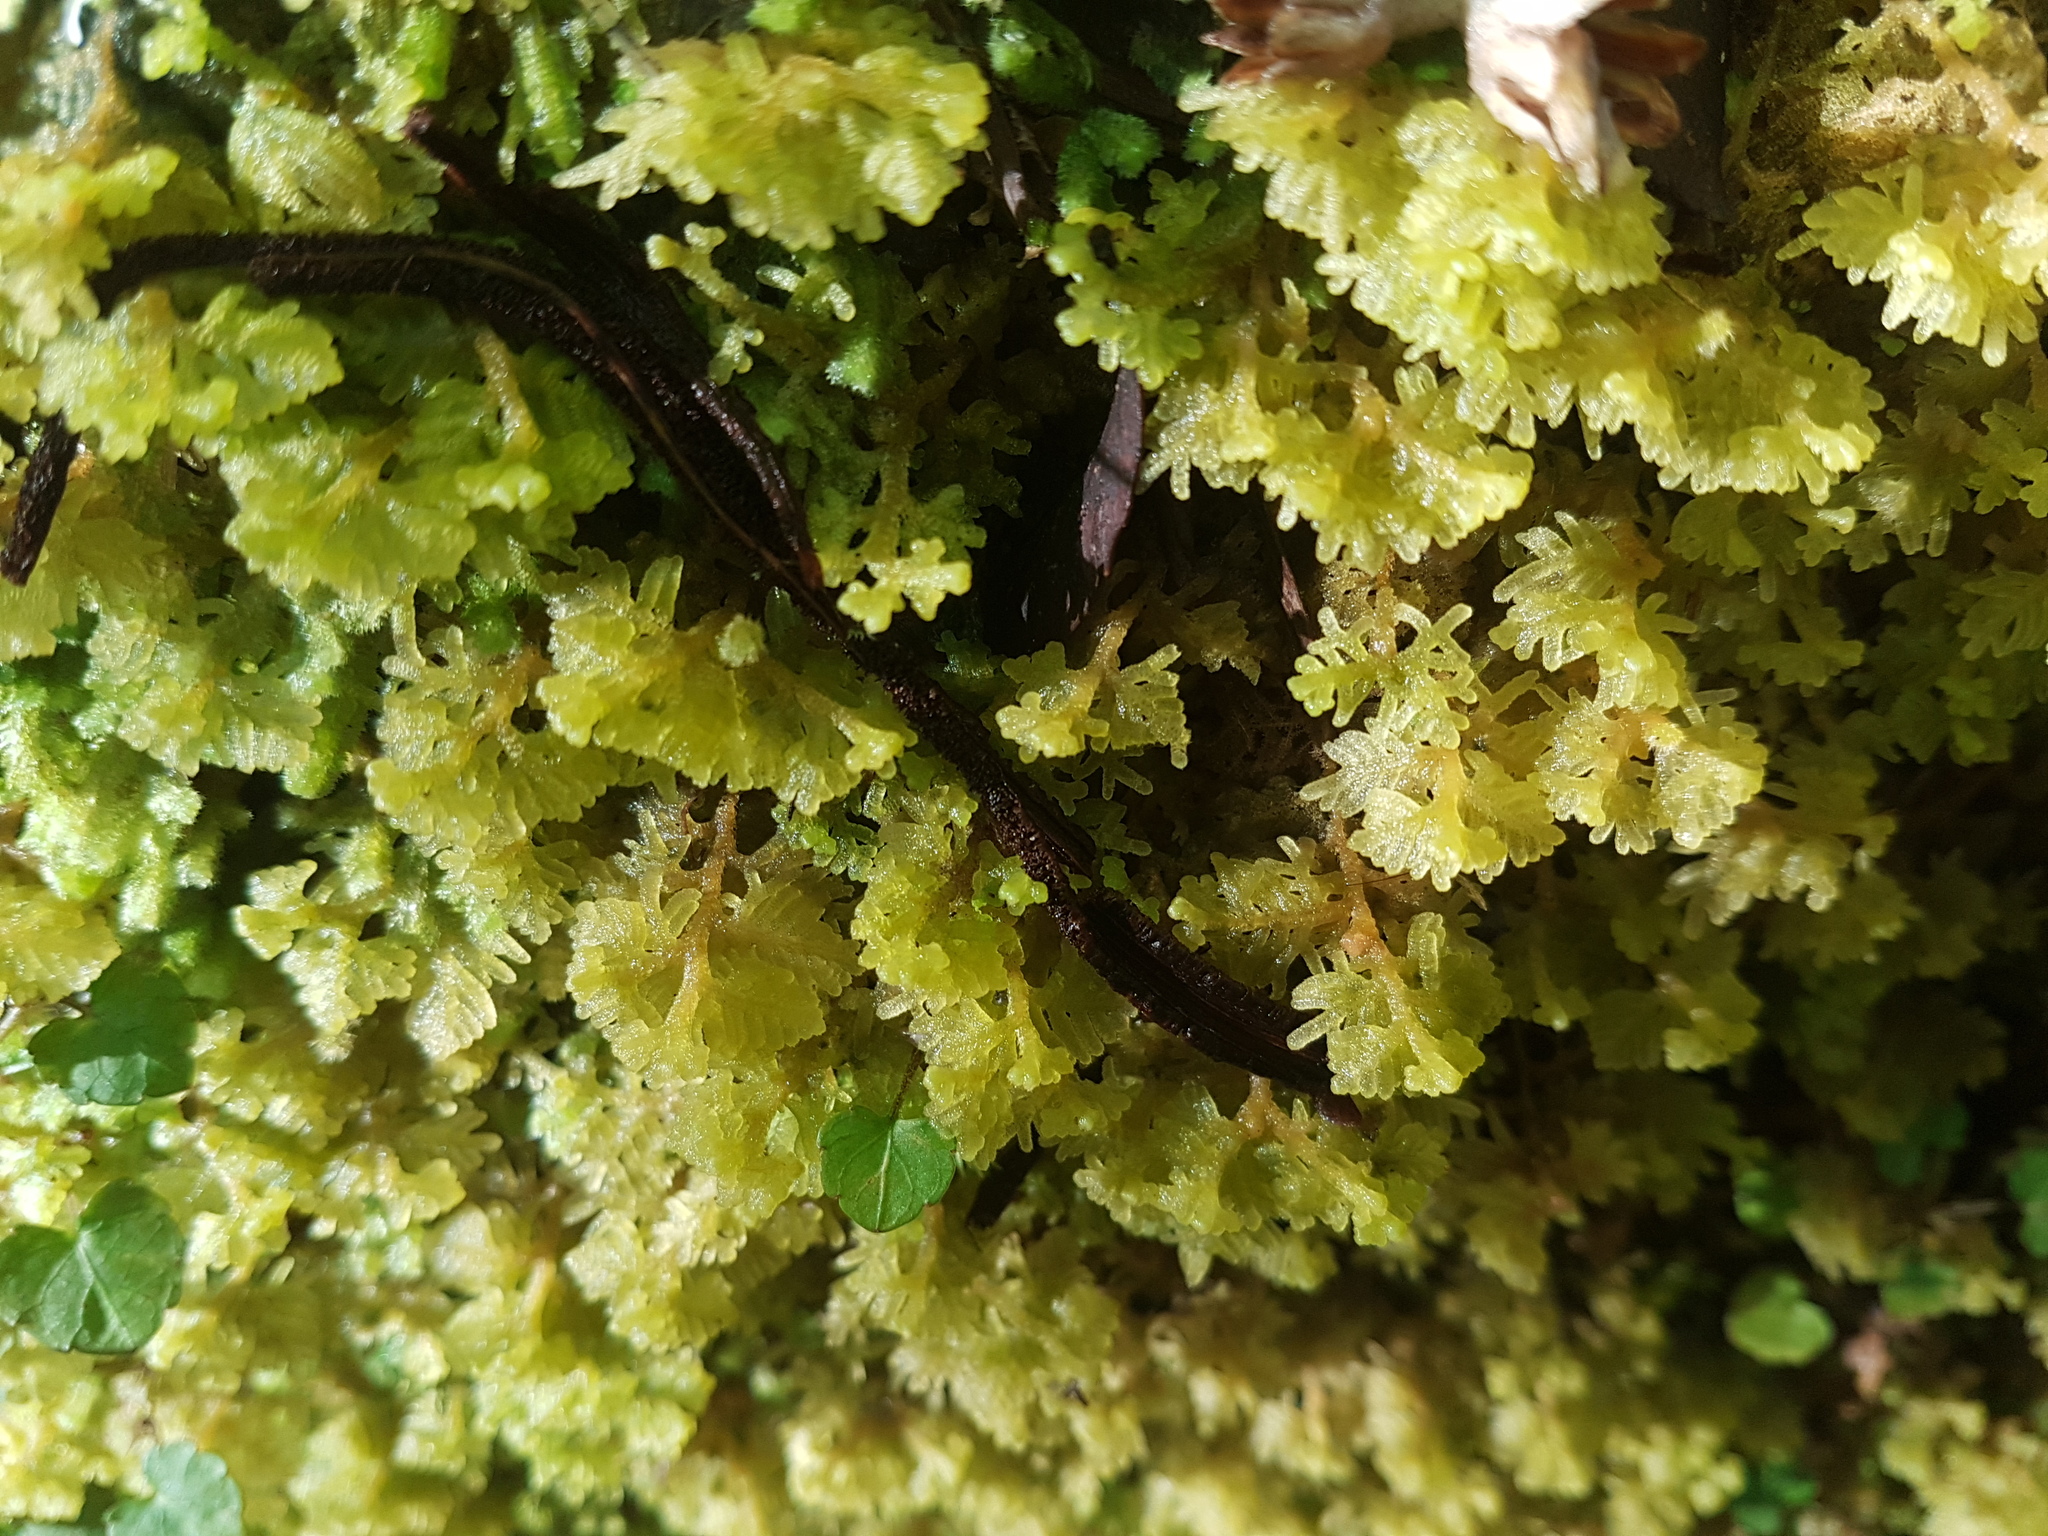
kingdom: Plantae
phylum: Marchantiophyta
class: Jungermanniopsida
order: Jungermanniales
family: Trichocoleaceae
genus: Trichocolea
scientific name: Trichocolea mollissima
